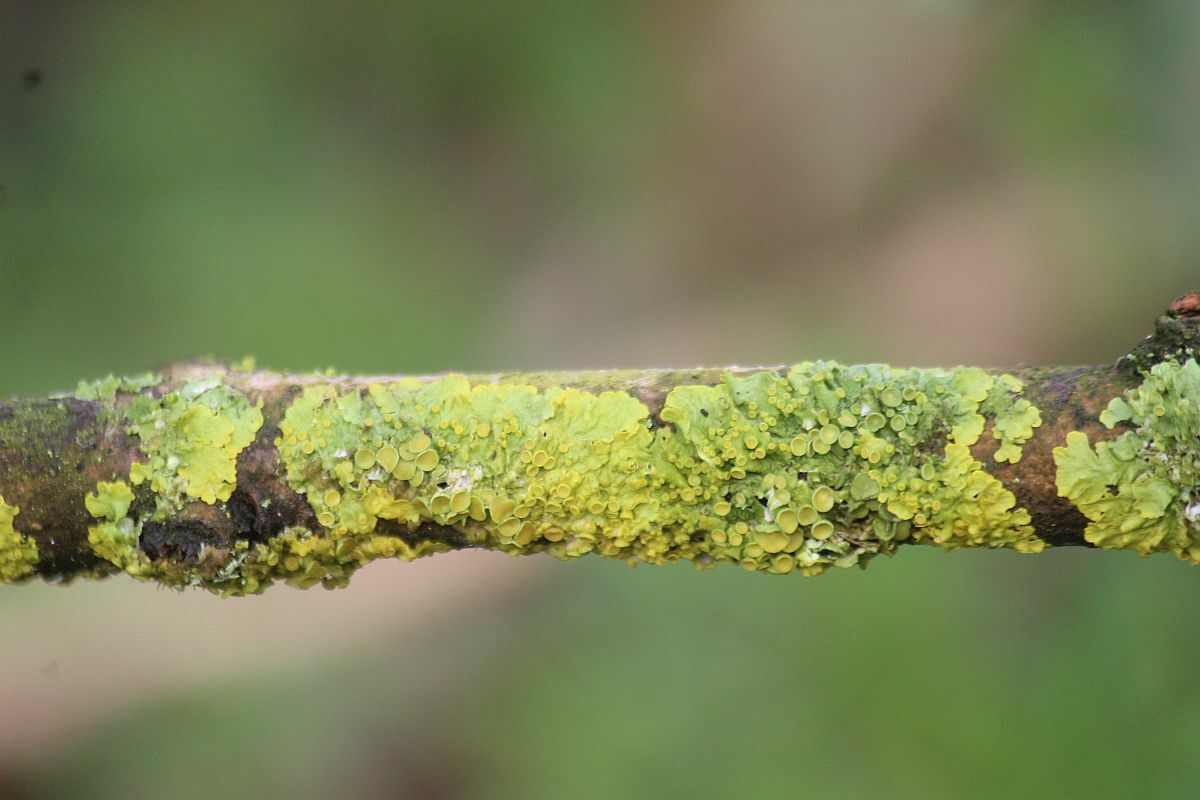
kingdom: Fungi
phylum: Ascomycota
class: Lecanoromycetes
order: Teloschistales
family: Teloschistaceae
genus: Xanthoria
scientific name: Xanthoria parietina
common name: Common orange lichen
